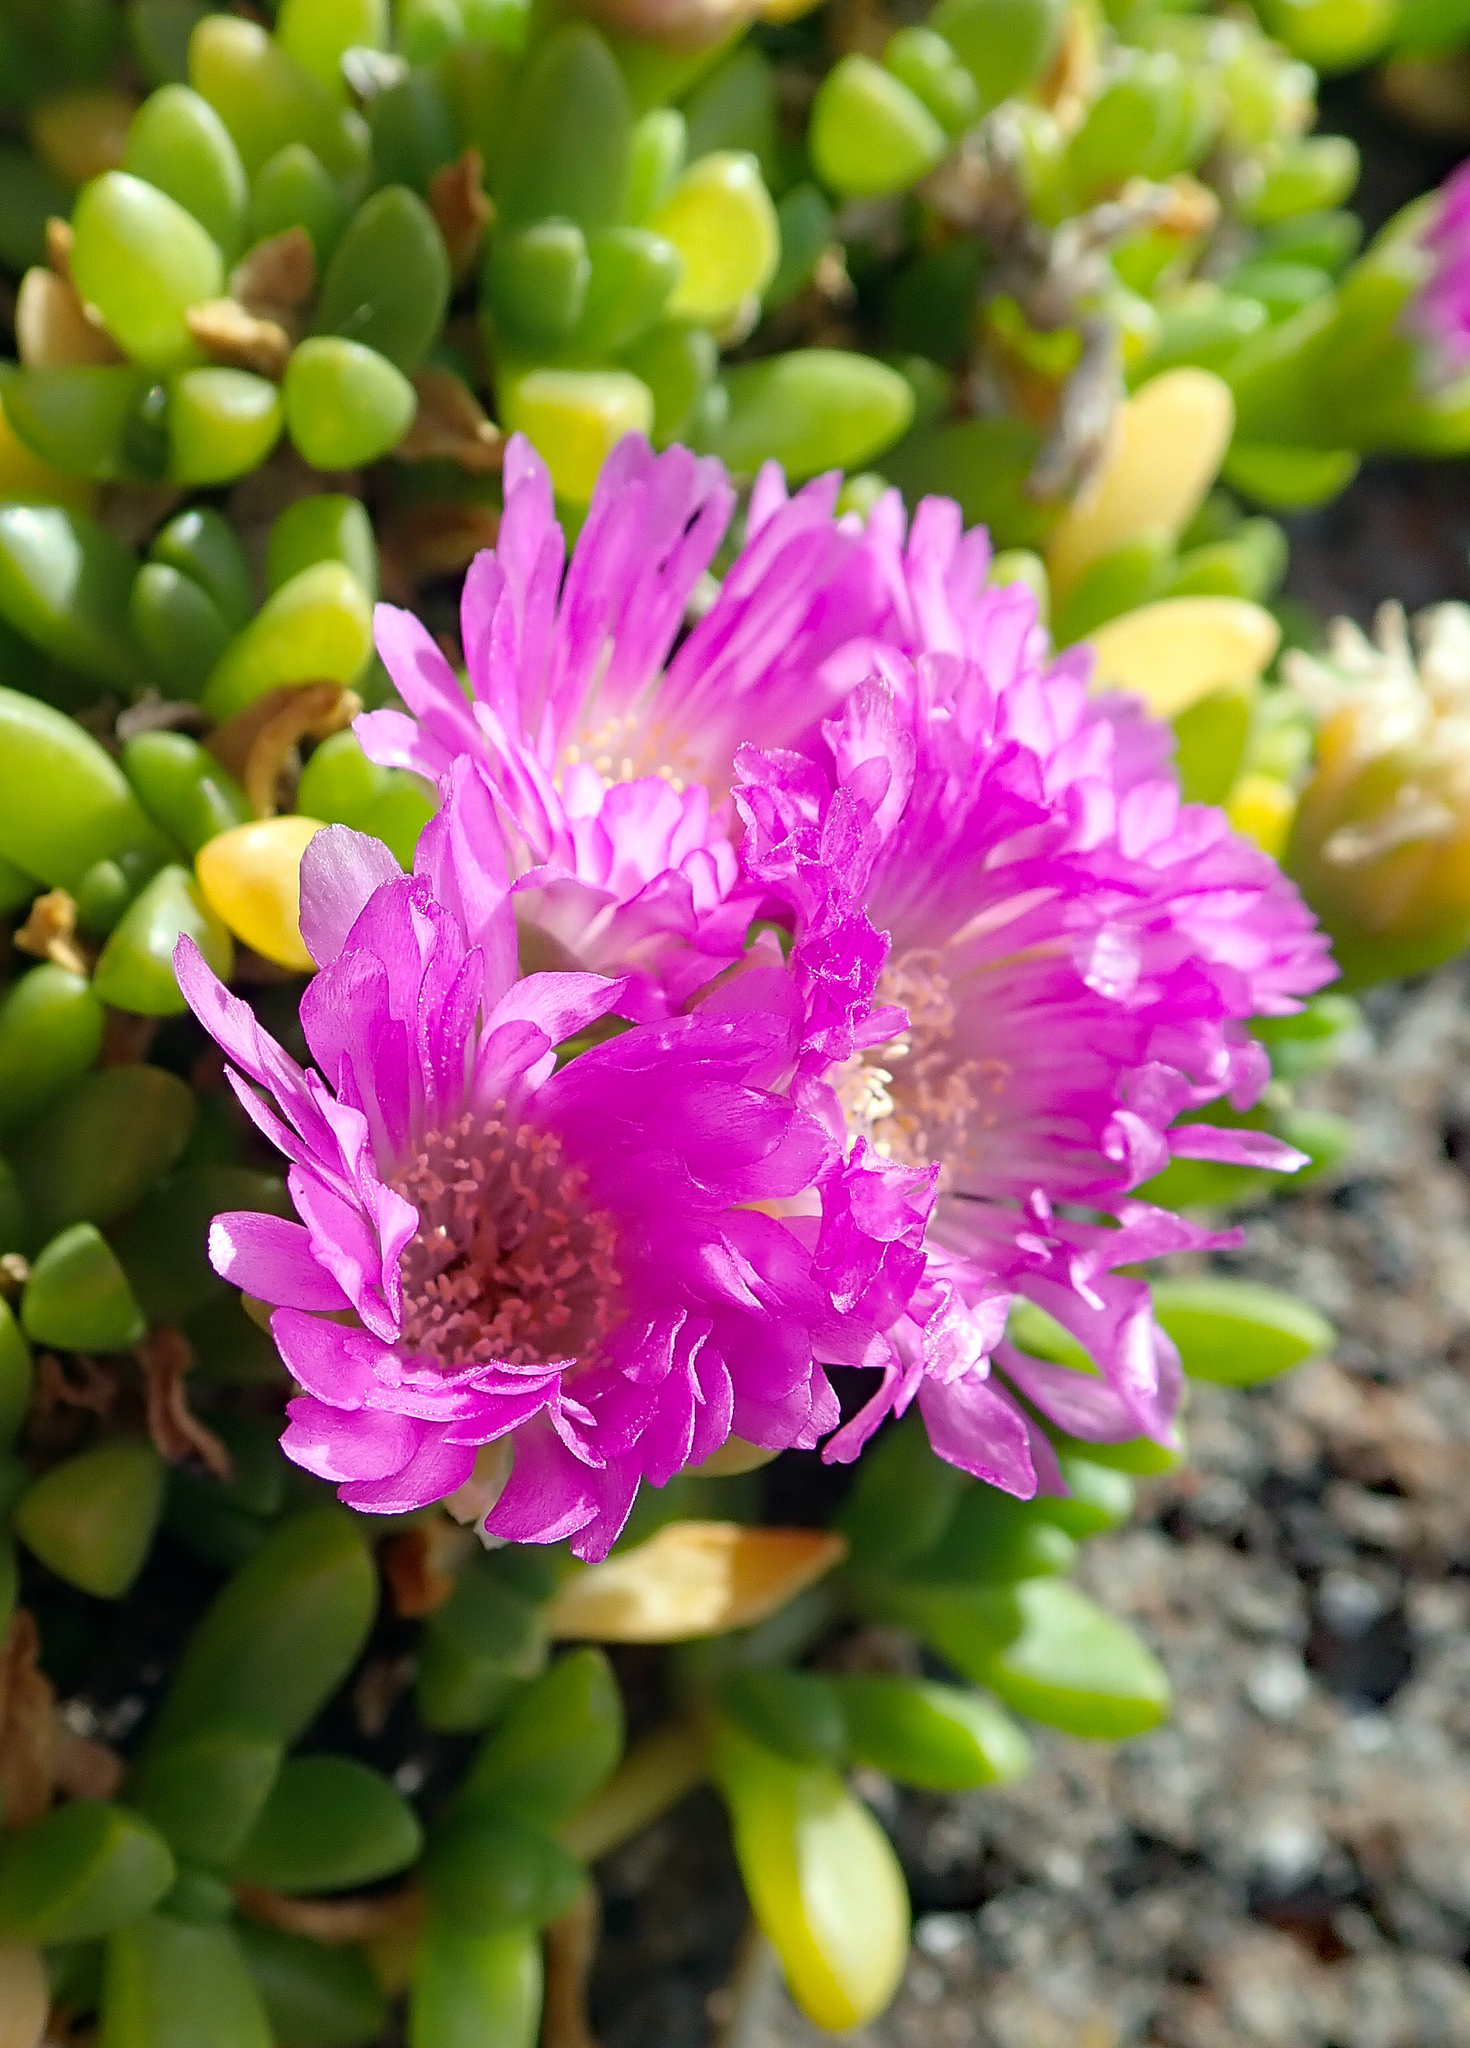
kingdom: Plantae
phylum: Tracheophyta
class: Magnoliopsida
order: Caryophyllales
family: Aizoaceae
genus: Disphyma
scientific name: Disphyma papillatum
